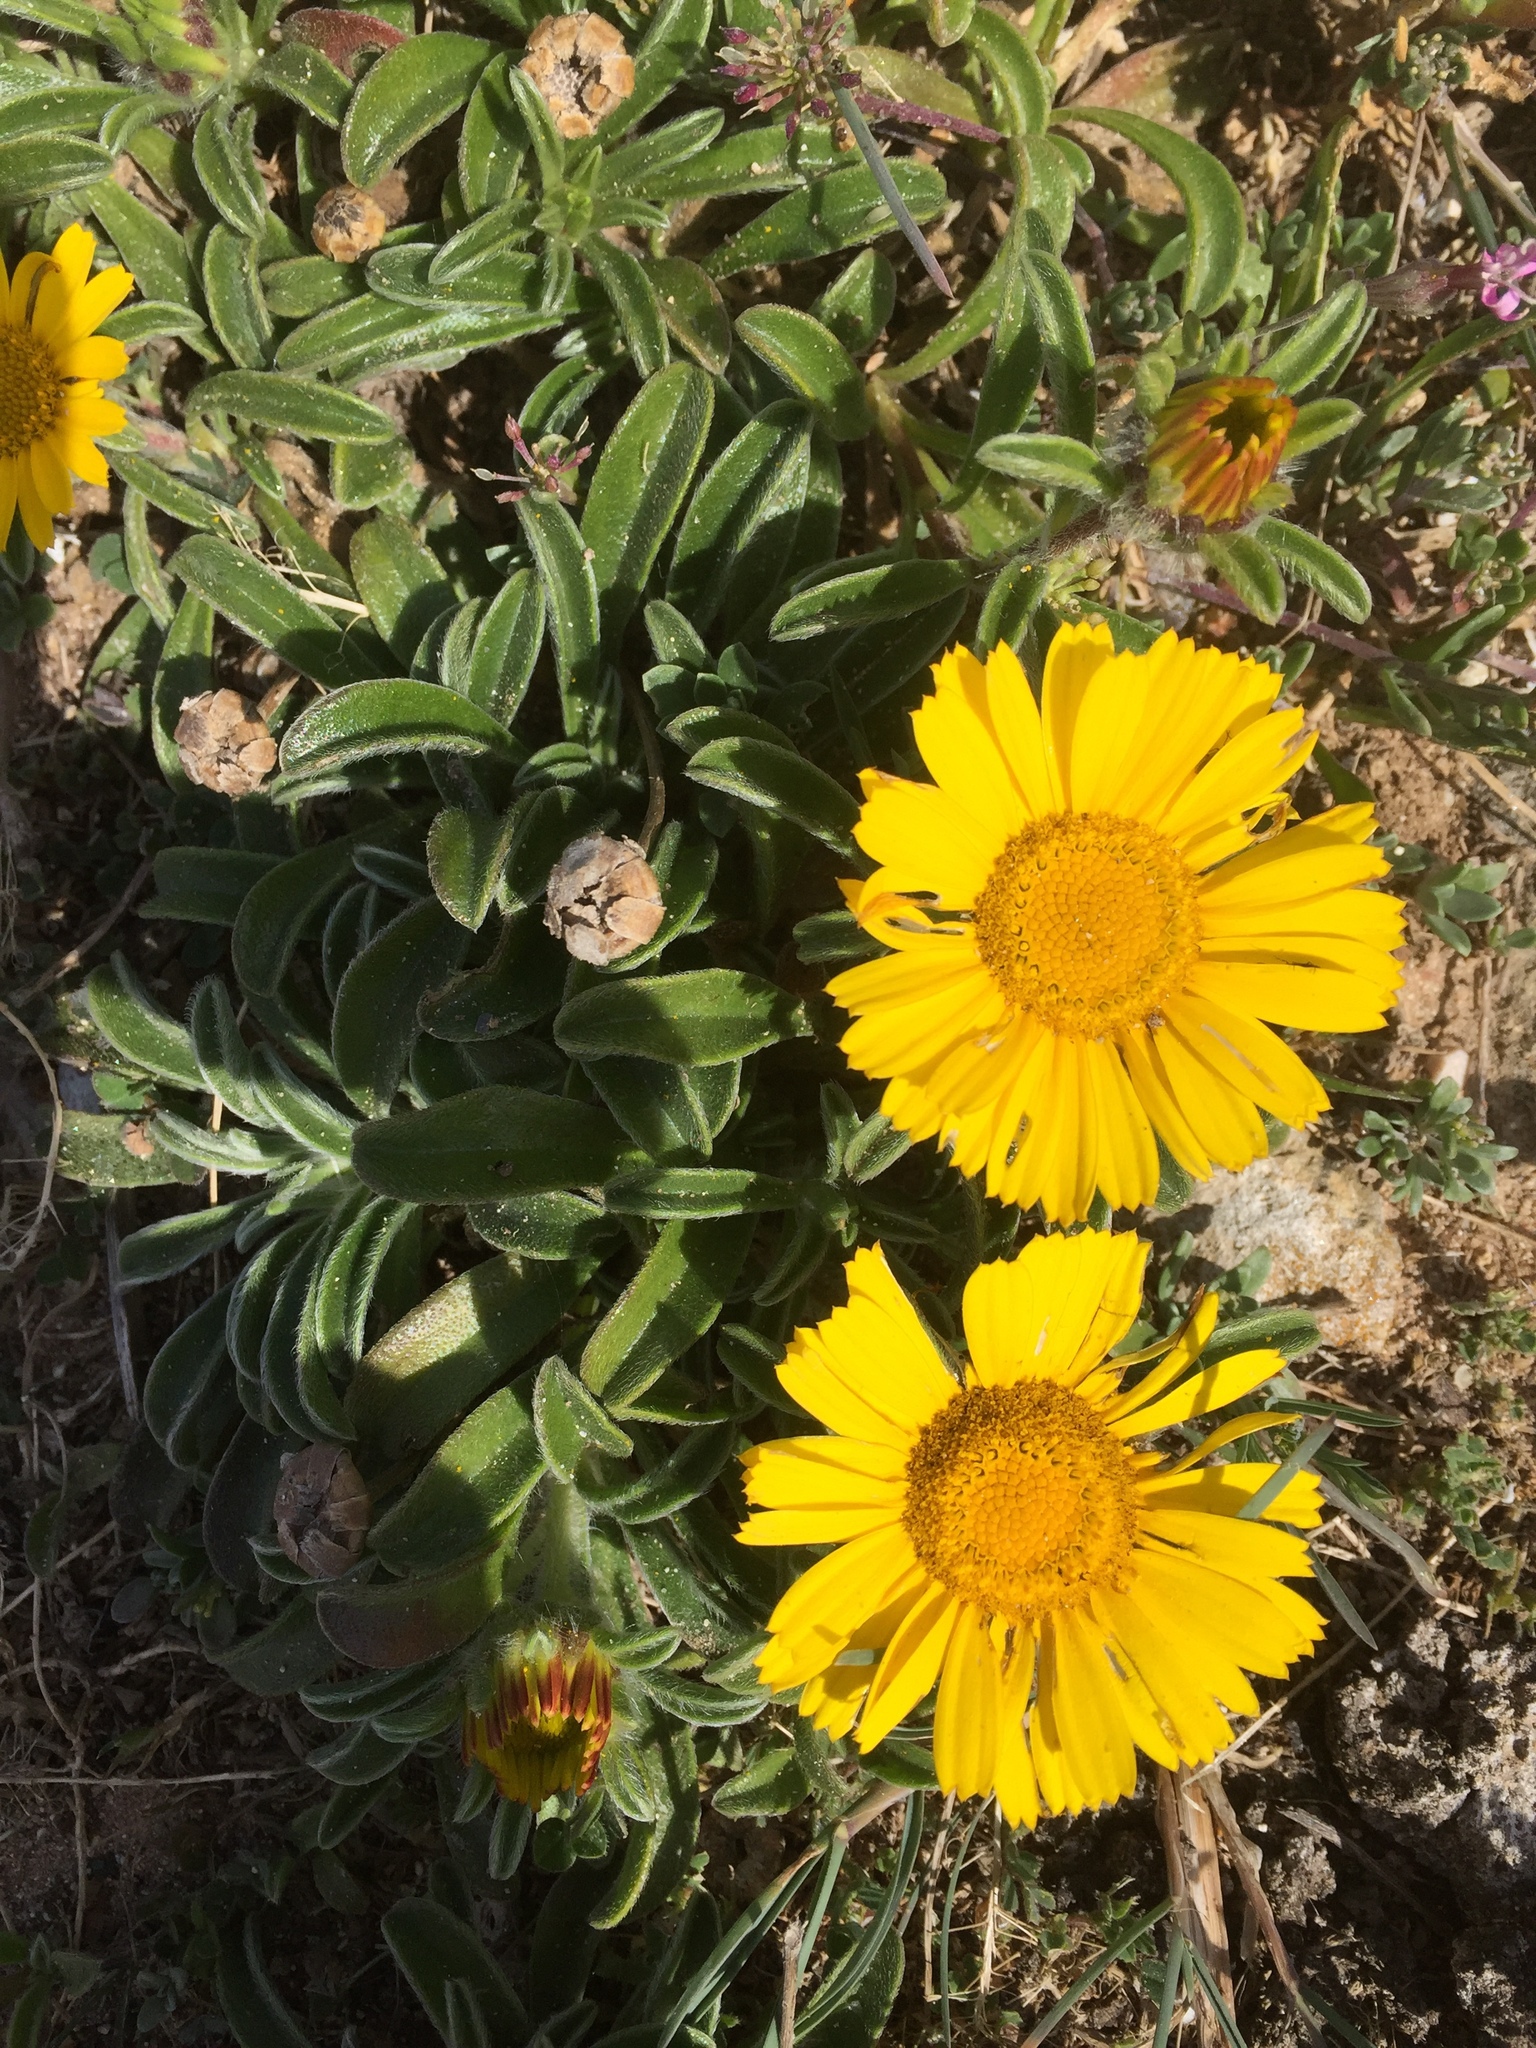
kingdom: Plantae
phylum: Tracheophyta
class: Magnoliopsida
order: Asterales
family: Asteraceae
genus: Pallenis
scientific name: Pallenis maritima
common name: Golden coin daisy
